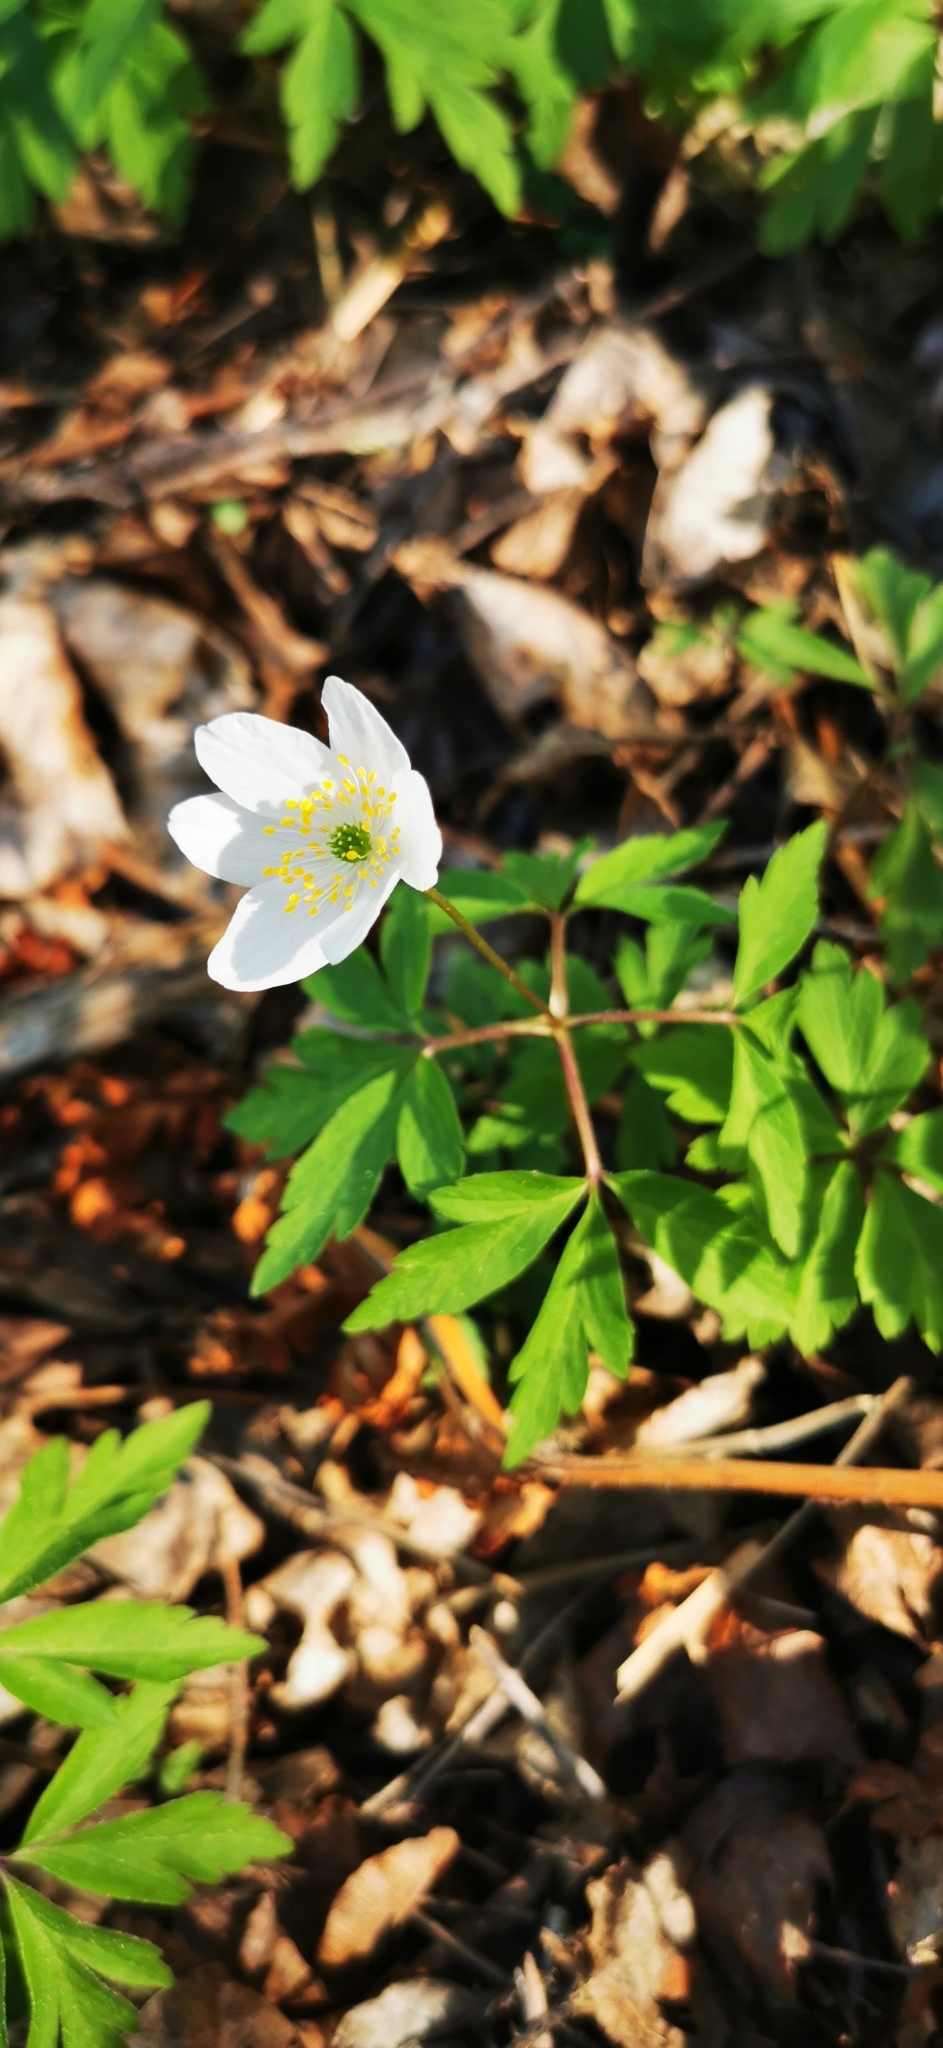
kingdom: Plantae
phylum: Tracheophyta
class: Magnoliopsida
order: Ranunculales
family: Ranunculaceae
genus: Anemone
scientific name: Anemone nemorosa
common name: Wood anemone
